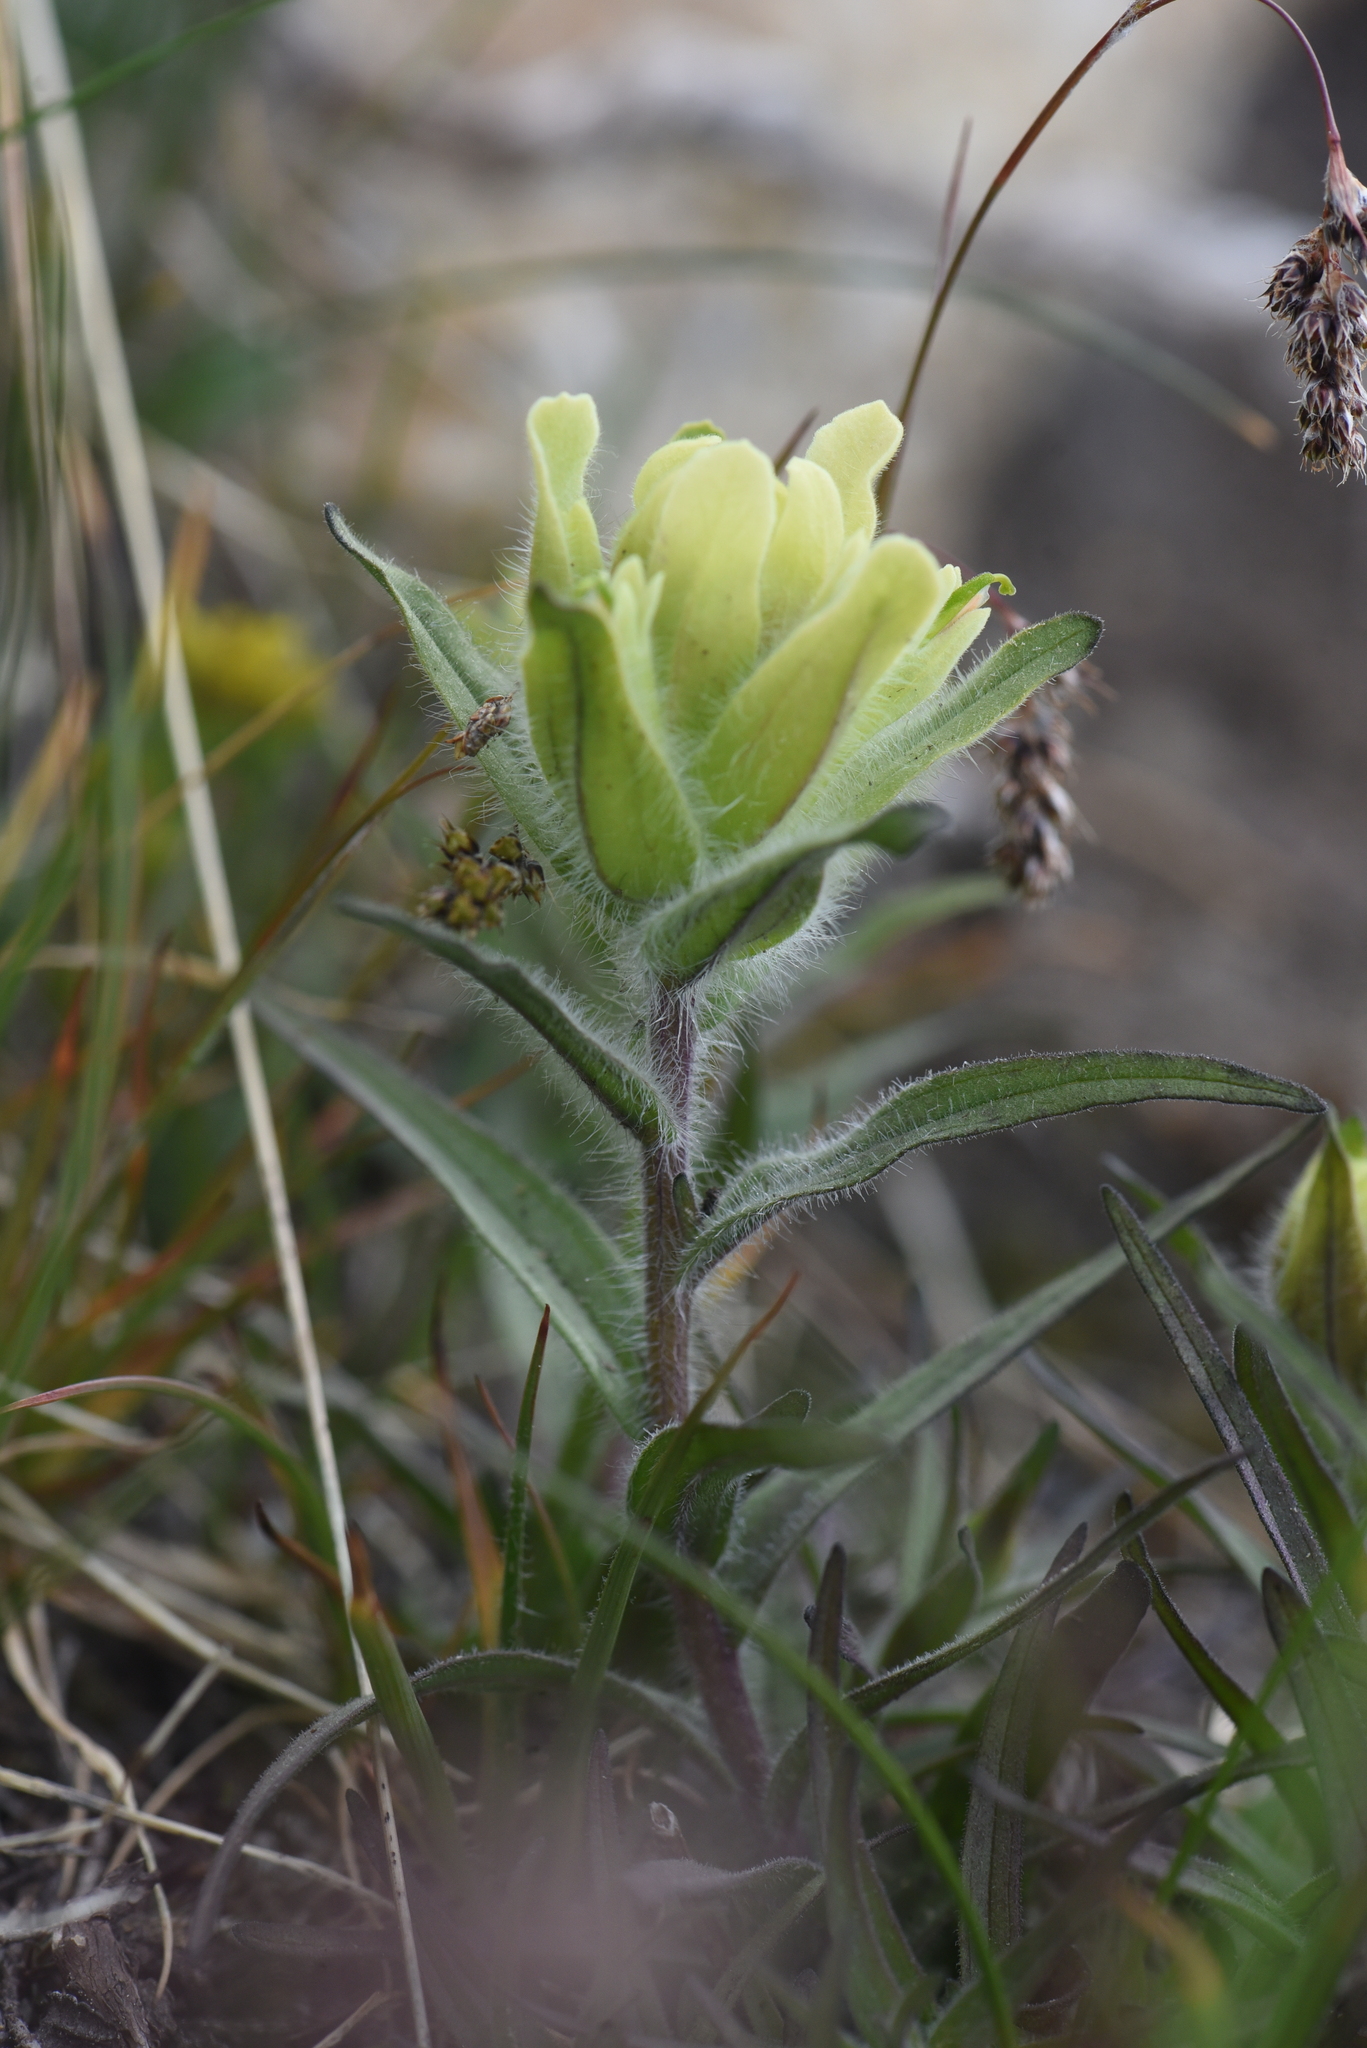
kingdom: Plantae
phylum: Tracheophyta
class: Magnoliopsida
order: Lamiales
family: Orobanchaceae
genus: Castilleja
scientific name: Castilleja occidentalis
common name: Western paintbrush
